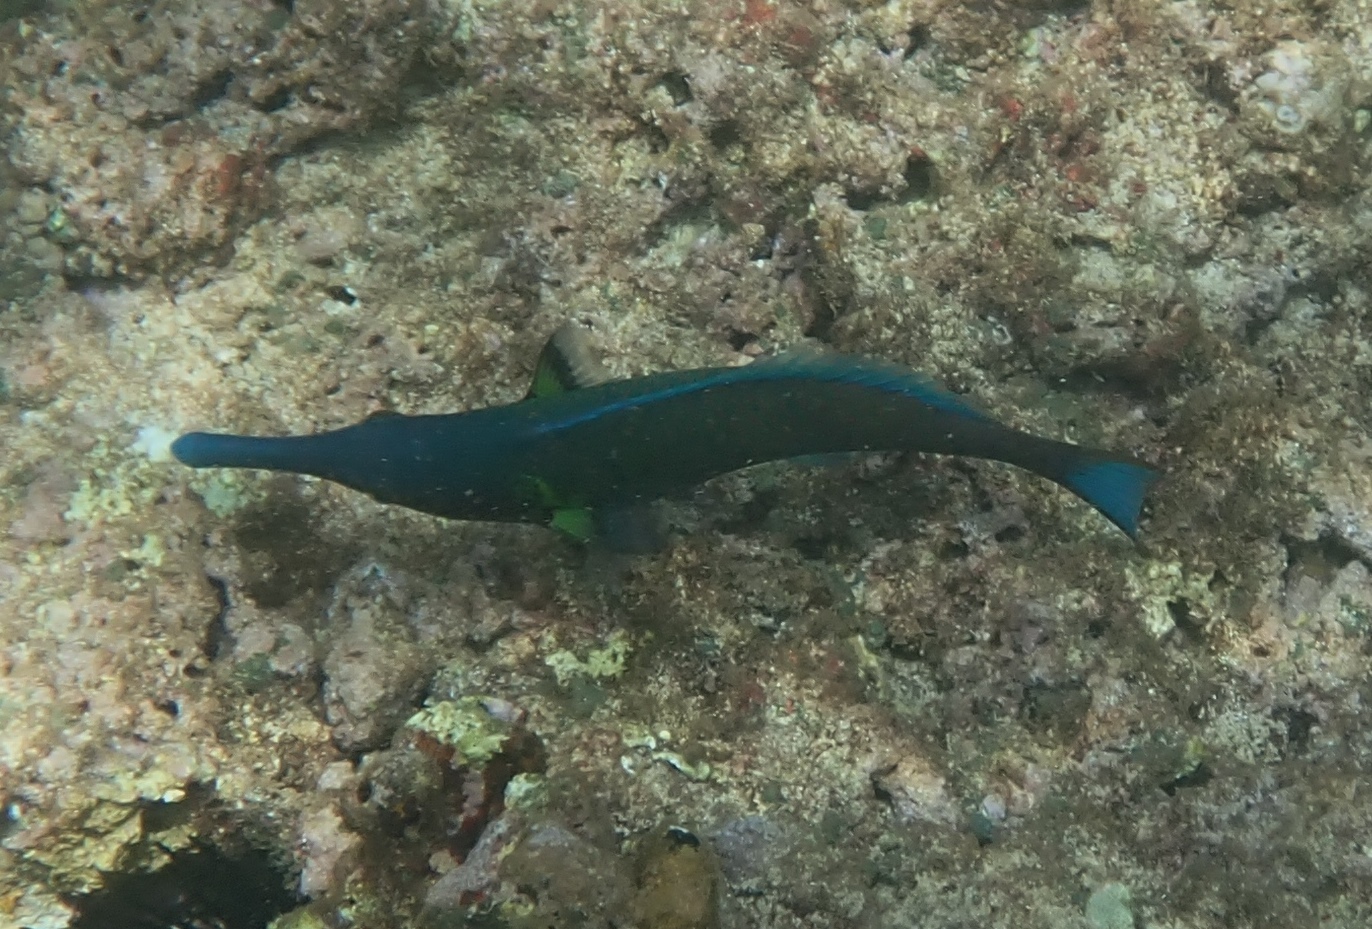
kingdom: Animalia
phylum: Chordata
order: Perciformes
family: Labridae
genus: Gomphosus
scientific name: Gomphosus varius
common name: Bird wrasse
